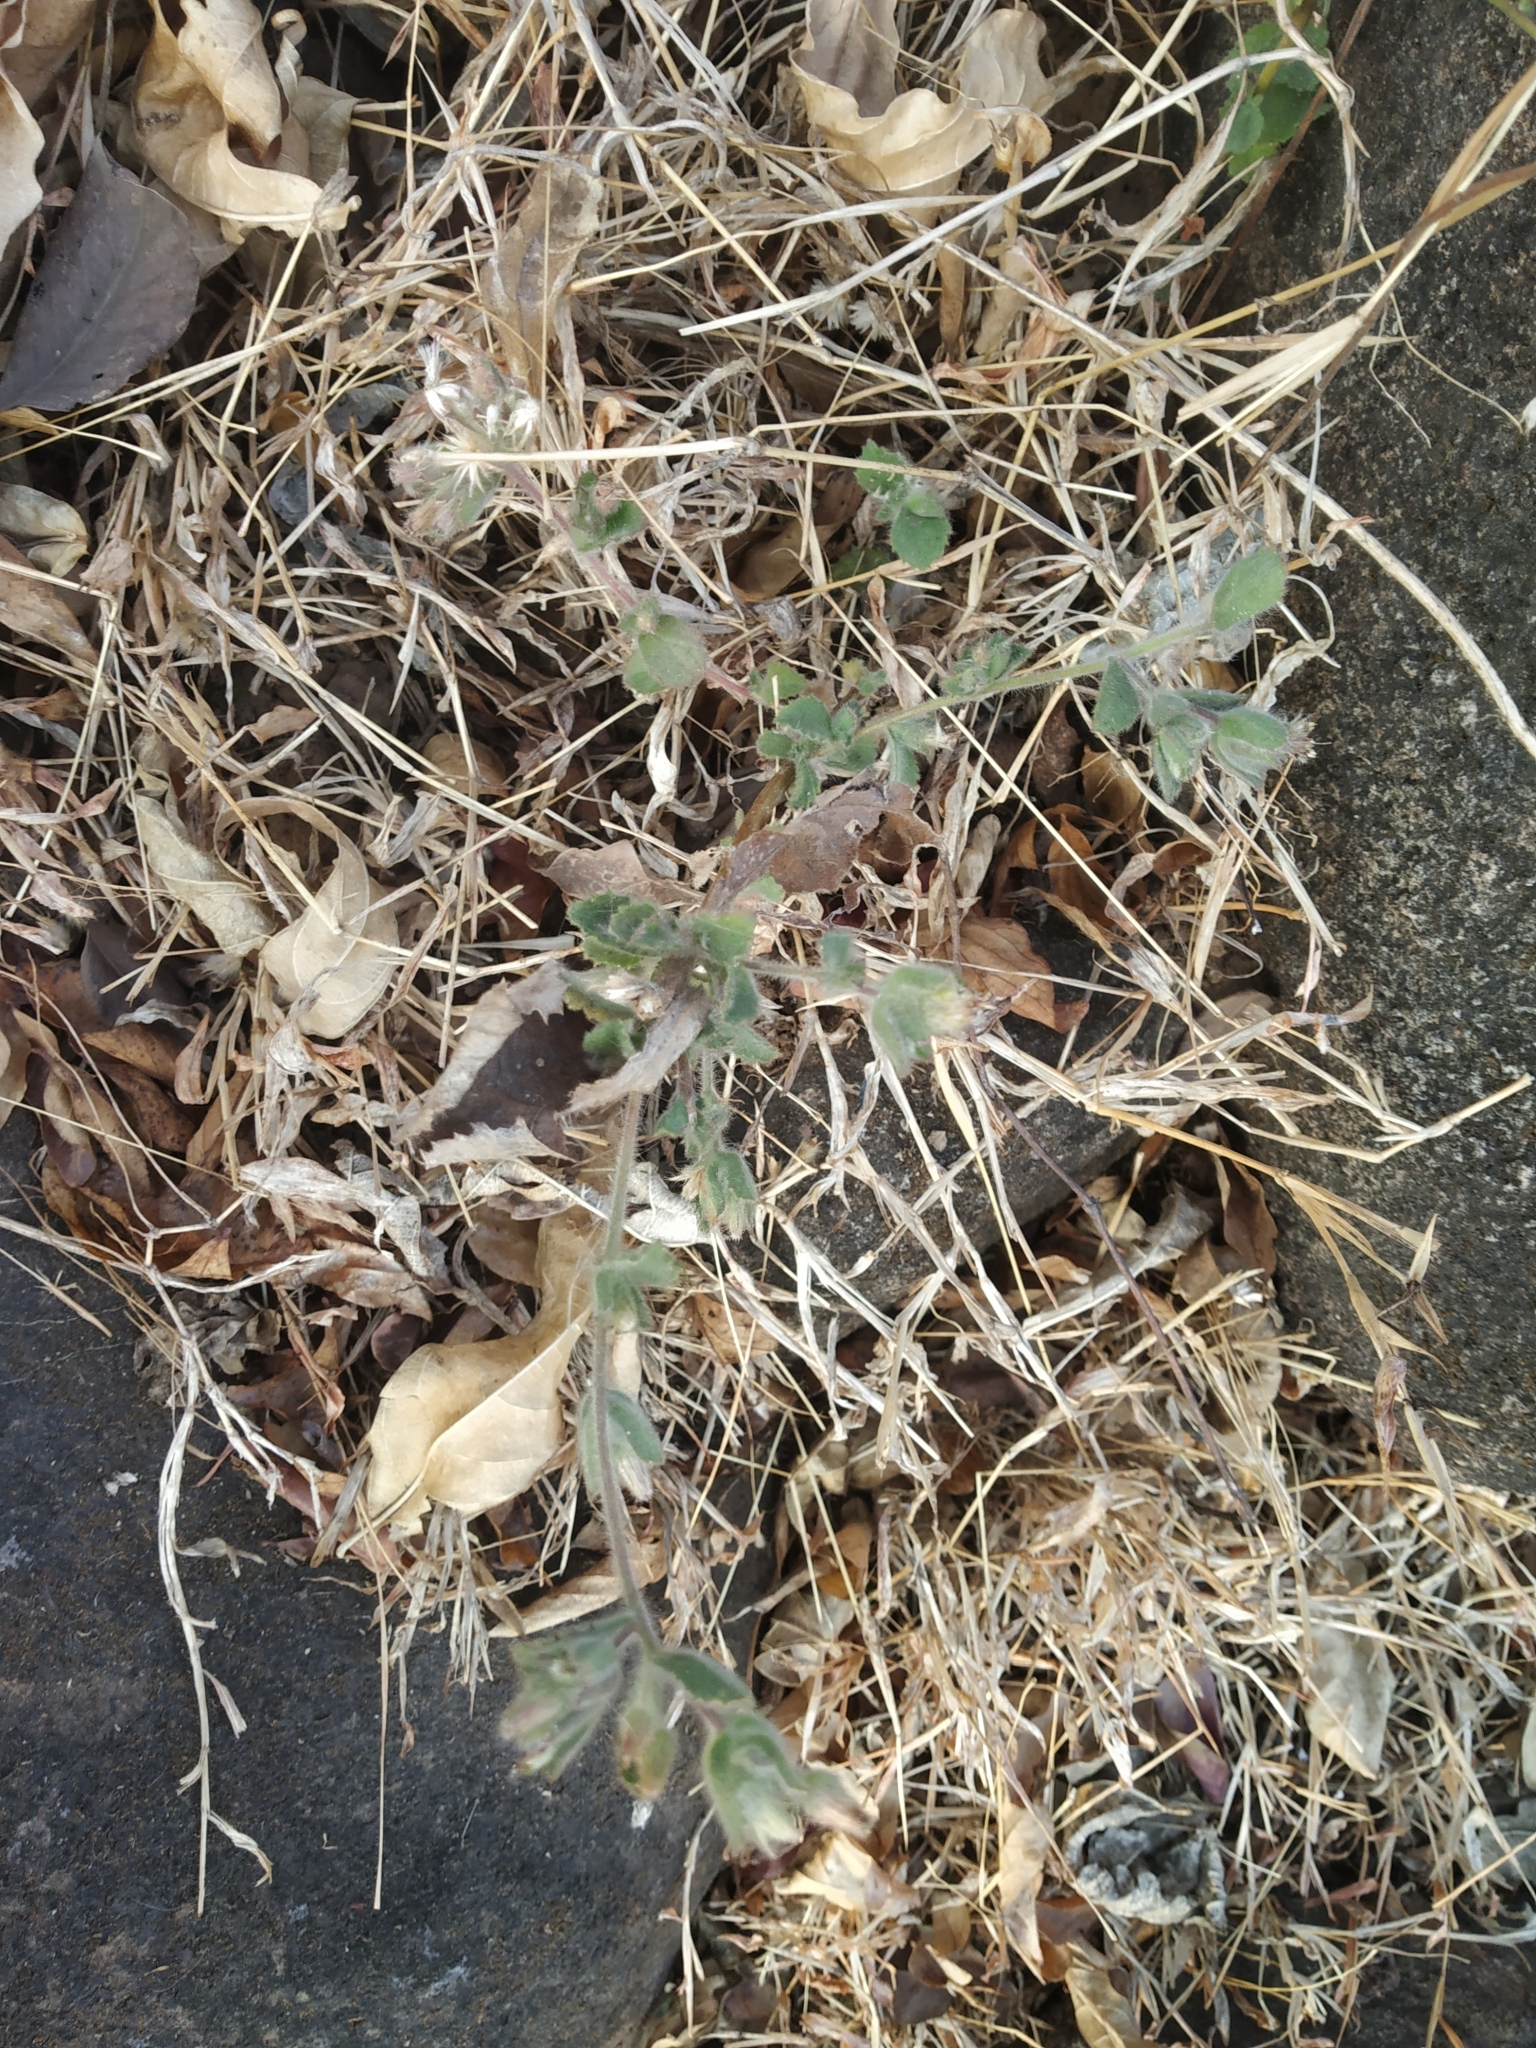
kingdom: Plantae
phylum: Tracheophyta
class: Magnoliopsida
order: Asterales
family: Asteraceae
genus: Blumea
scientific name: Blumea belangeriana
